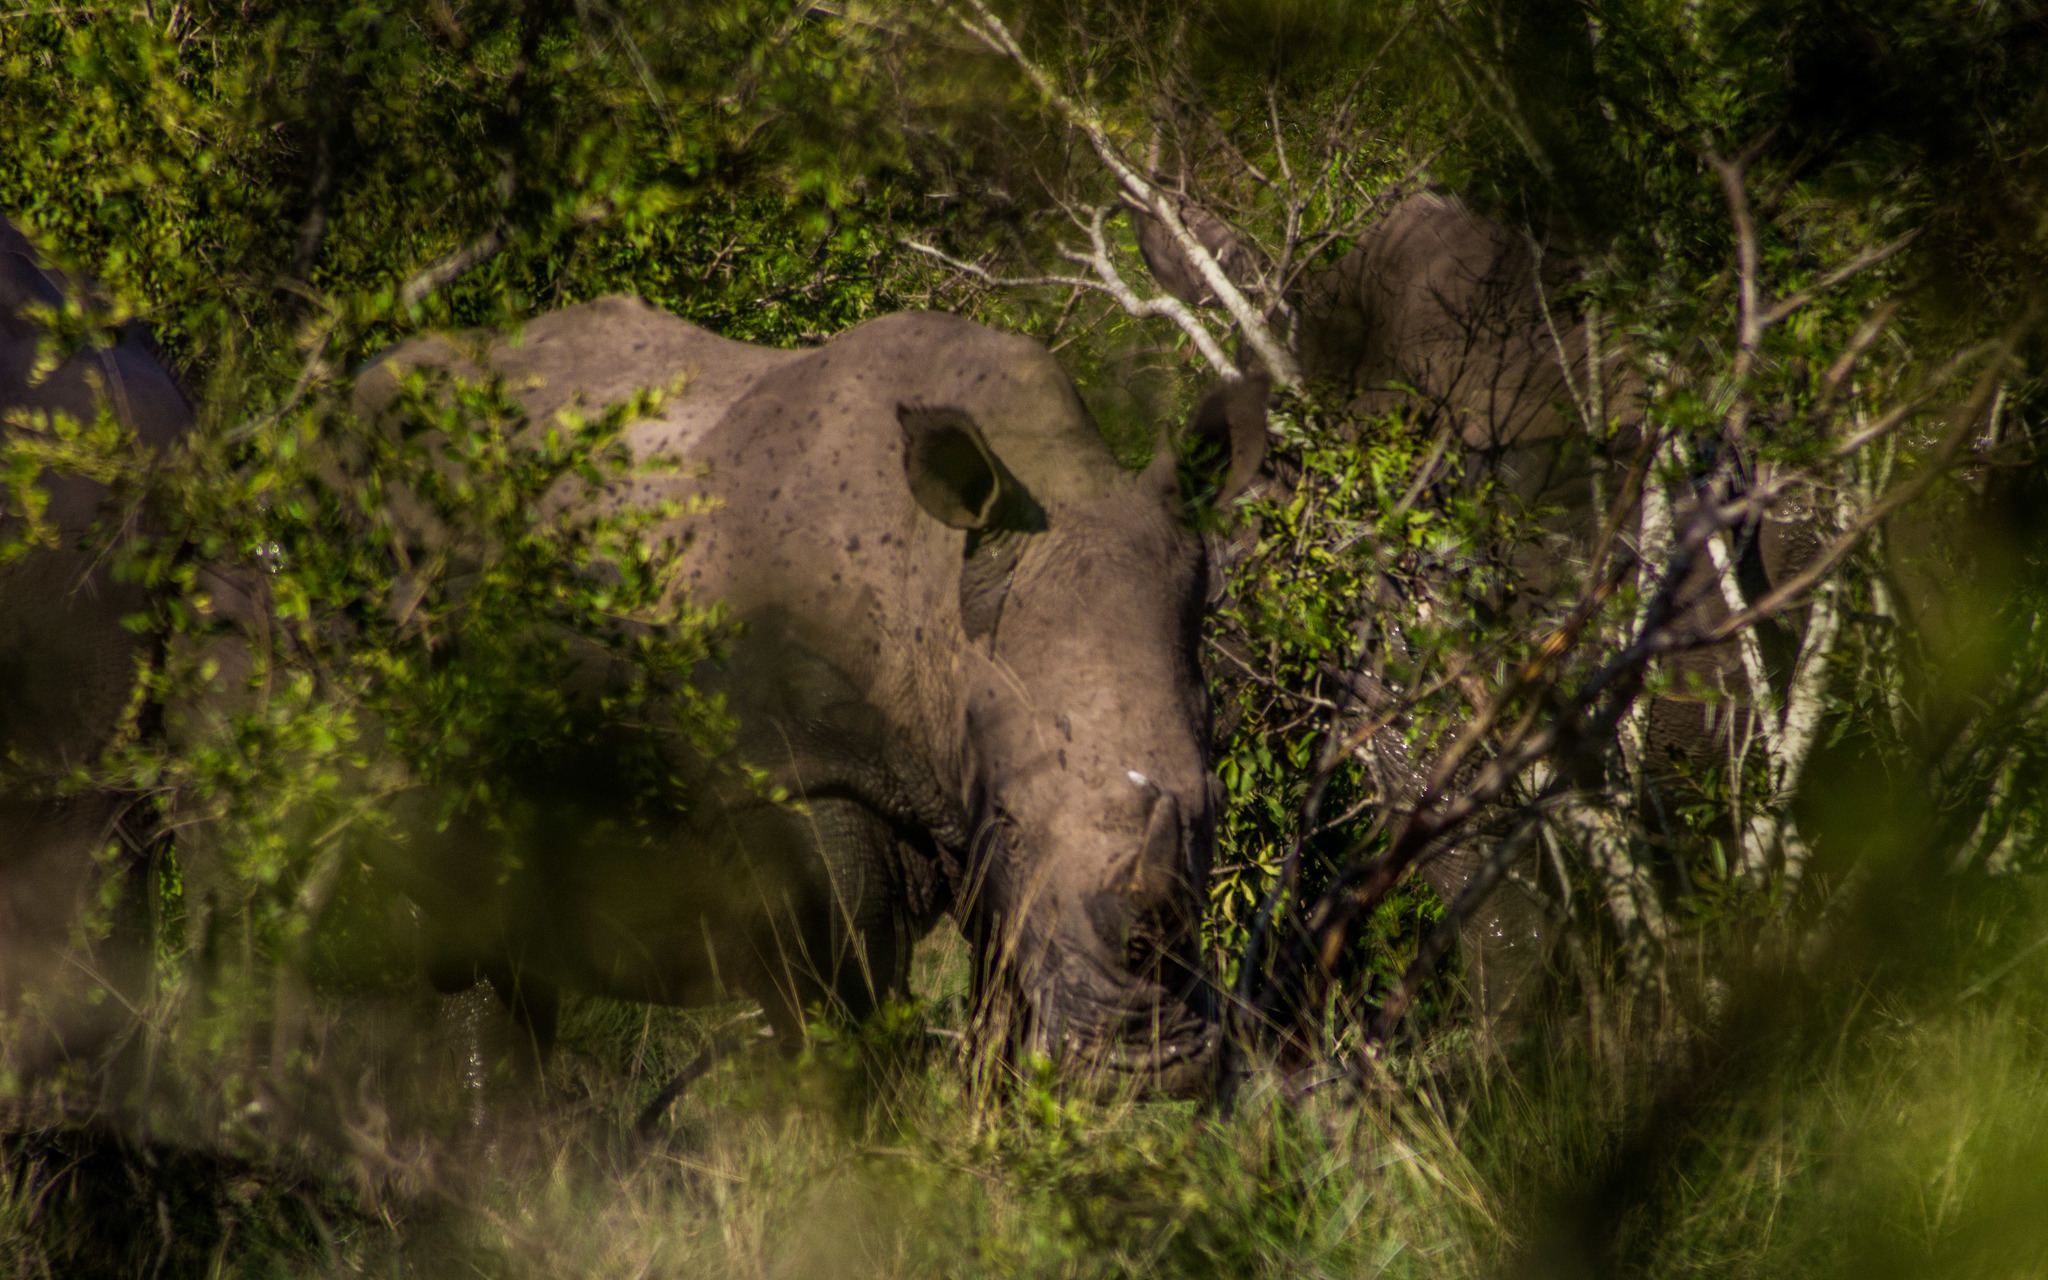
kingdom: Animalia
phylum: Chordata
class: Mammalia
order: Perissodactyla
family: Rhinocerotidae
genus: Ceratotherium
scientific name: Ceratotherium simum
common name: White rhinoceros
